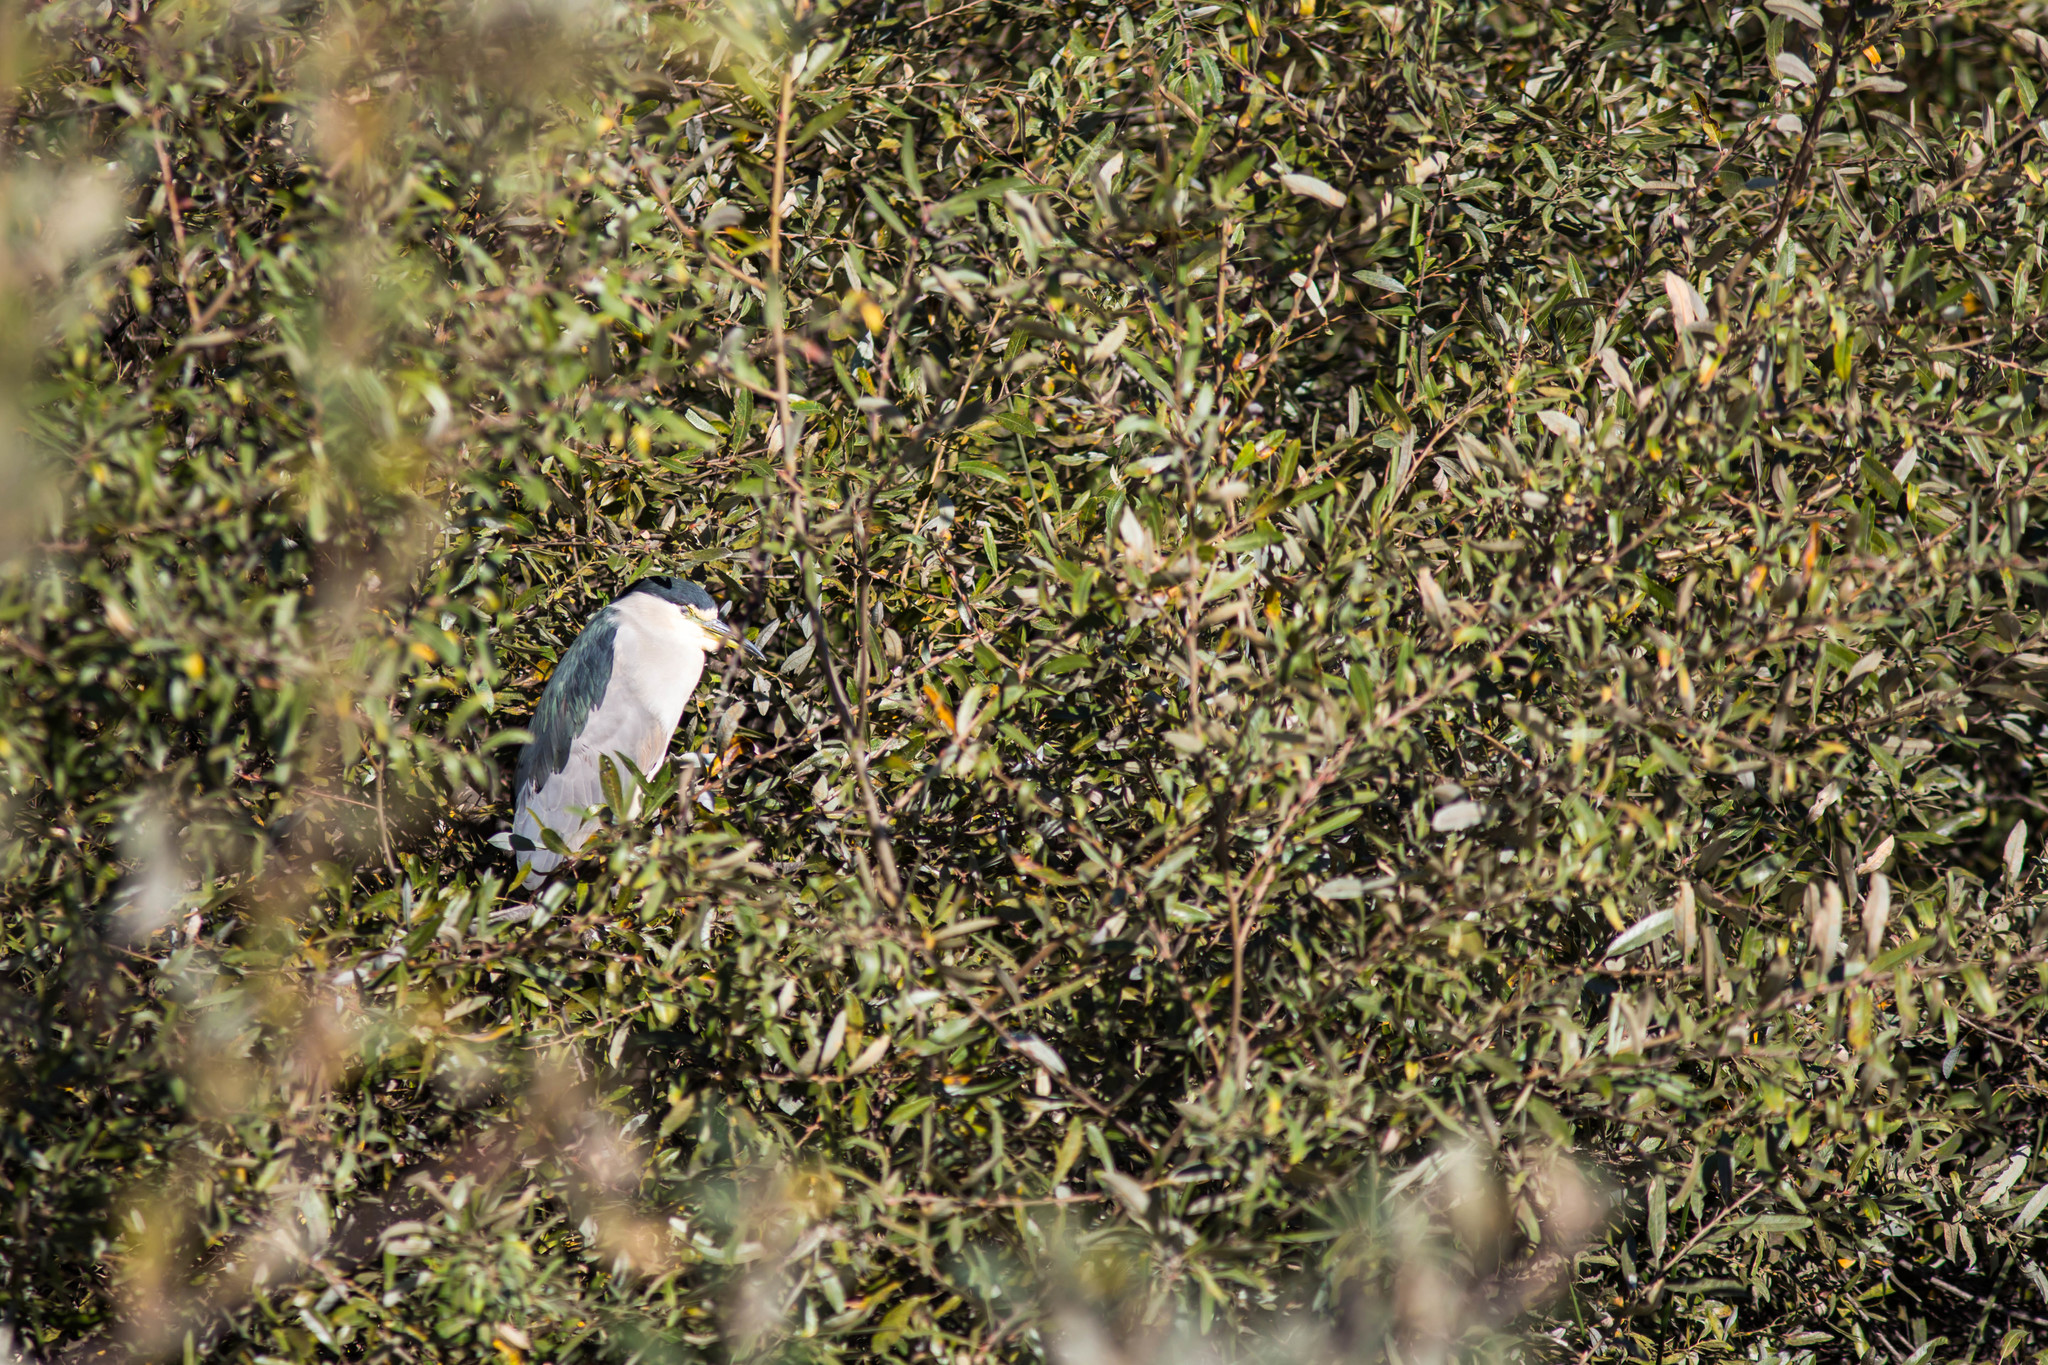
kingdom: Animalia
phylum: Chordata
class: Aves
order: Pelecaniformes
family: Ardeidae
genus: Nycticorax
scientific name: Nycticorax nycticorax
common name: Black-crowned night heron
